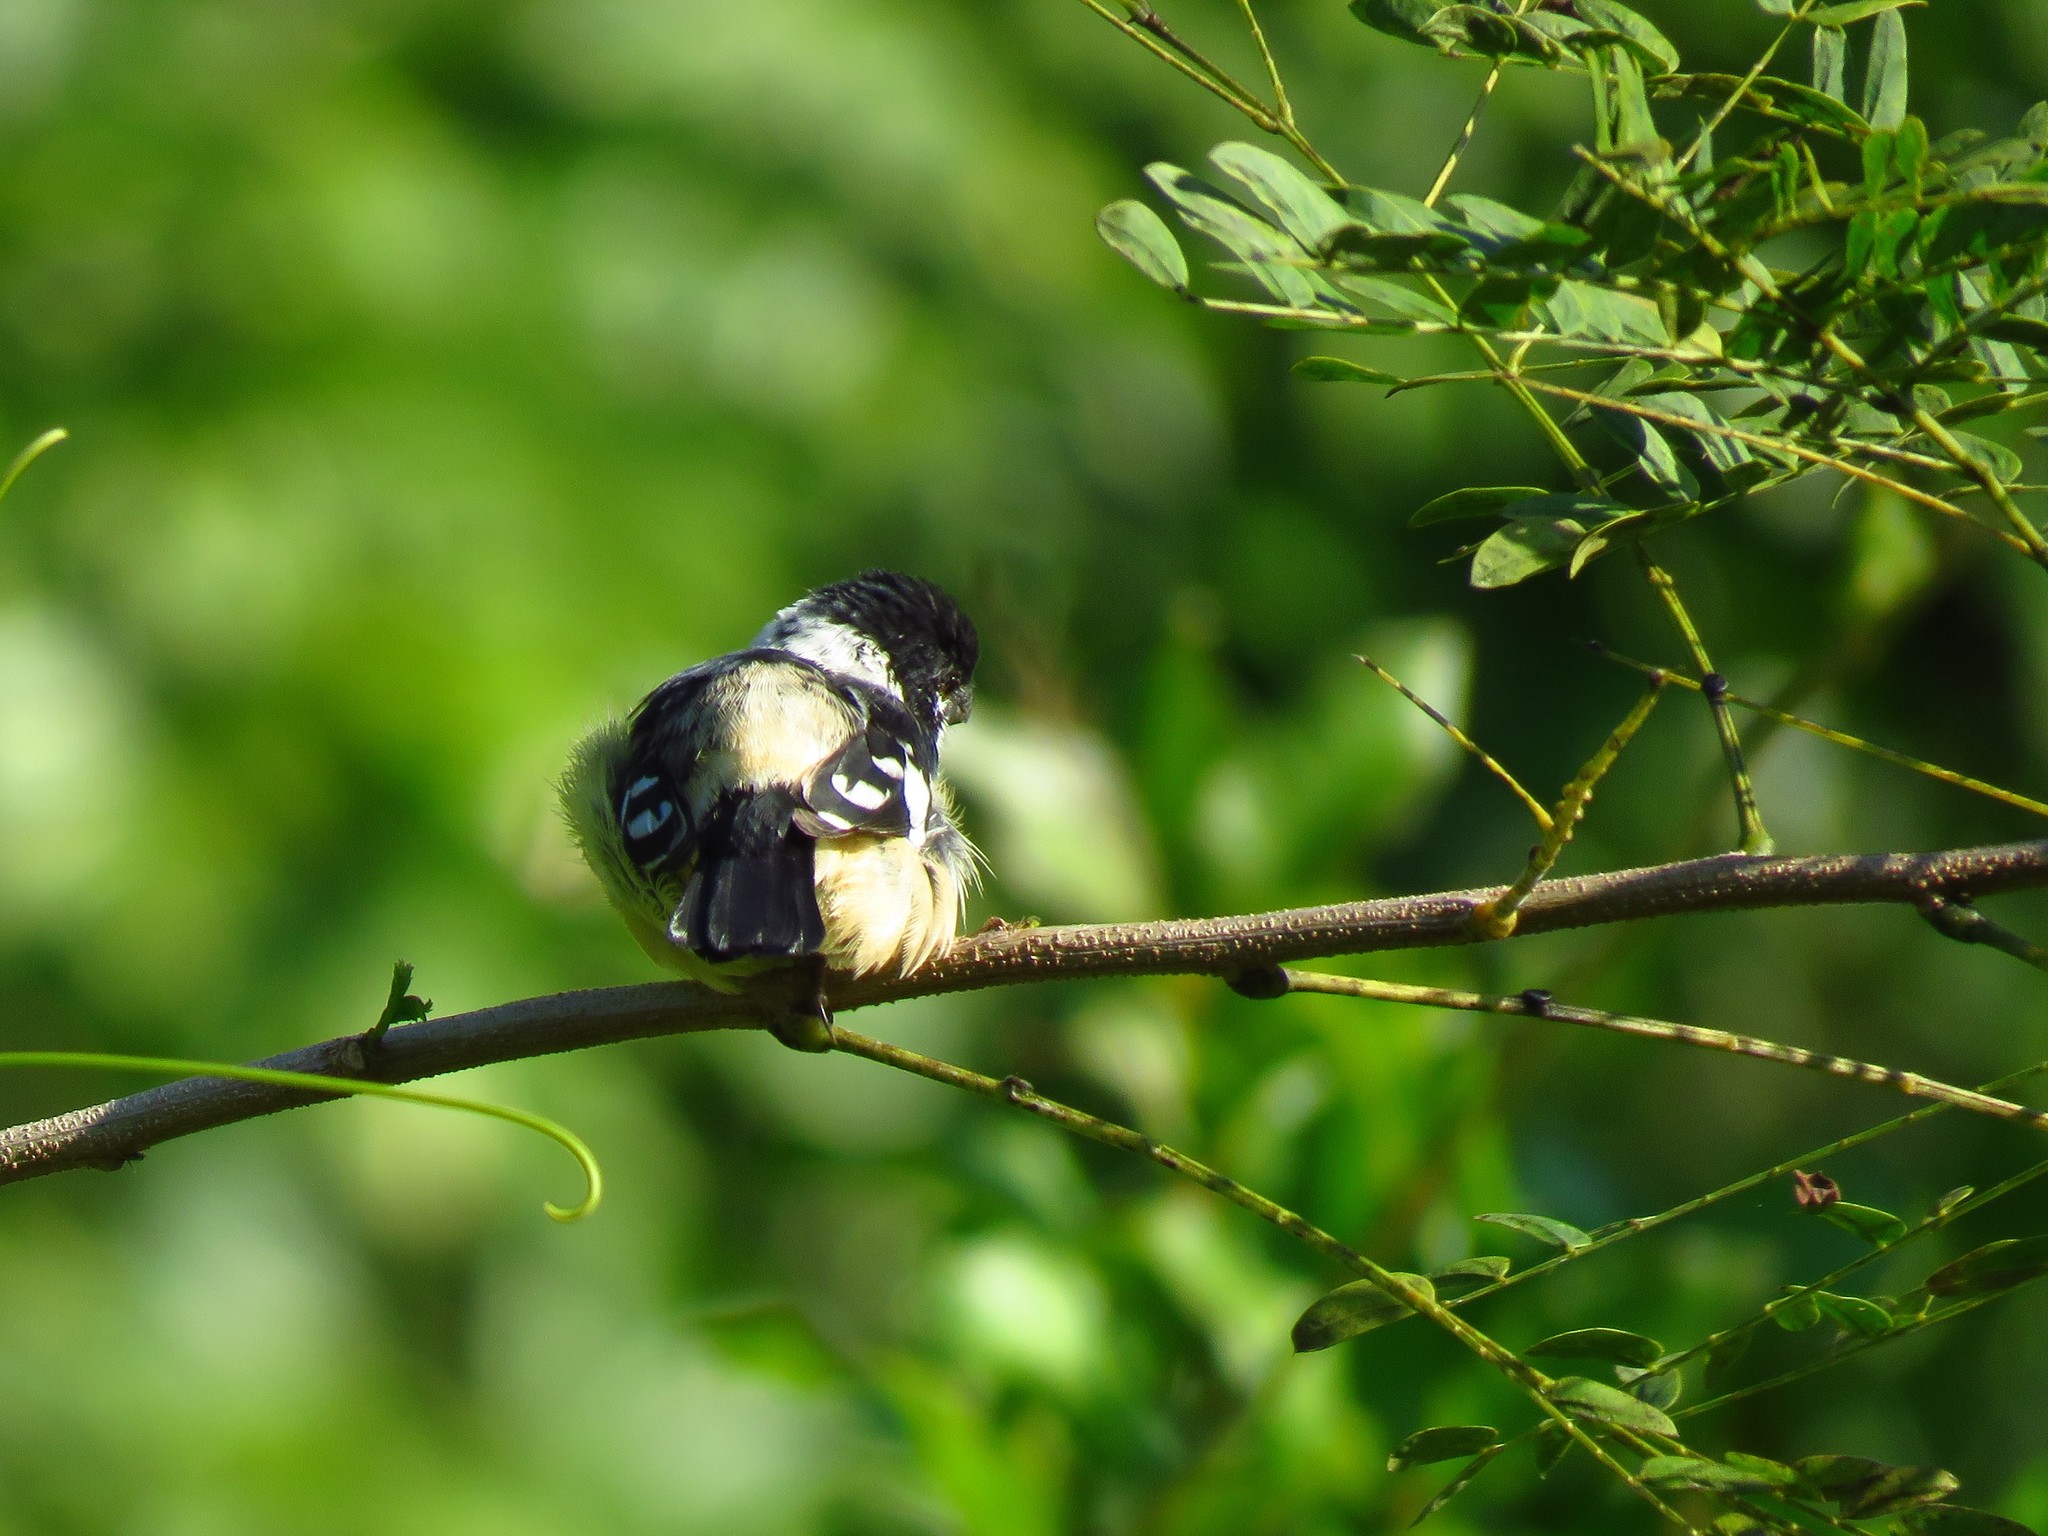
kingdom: Animalia
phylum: Chordata
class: Aves
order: Passeriformes
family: Thraupidae
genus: Sporophila
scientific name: Sporophila morelleti
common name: Morelet's seedeater
